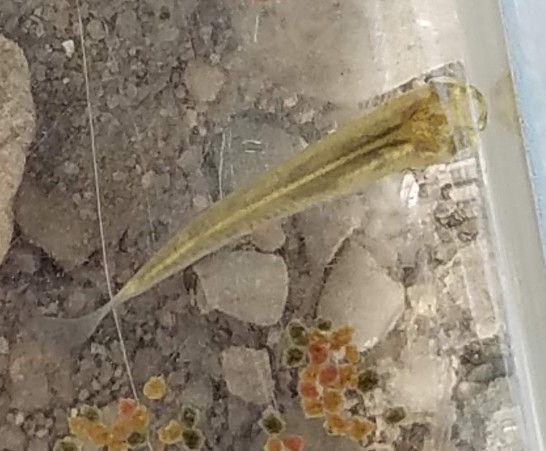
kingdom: Animalia
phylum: Chordata
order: Cyprinodontiformes
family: Fundulidae
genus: Fundulus
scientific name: Fundulus notatus
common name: Blackstripe topminnow
